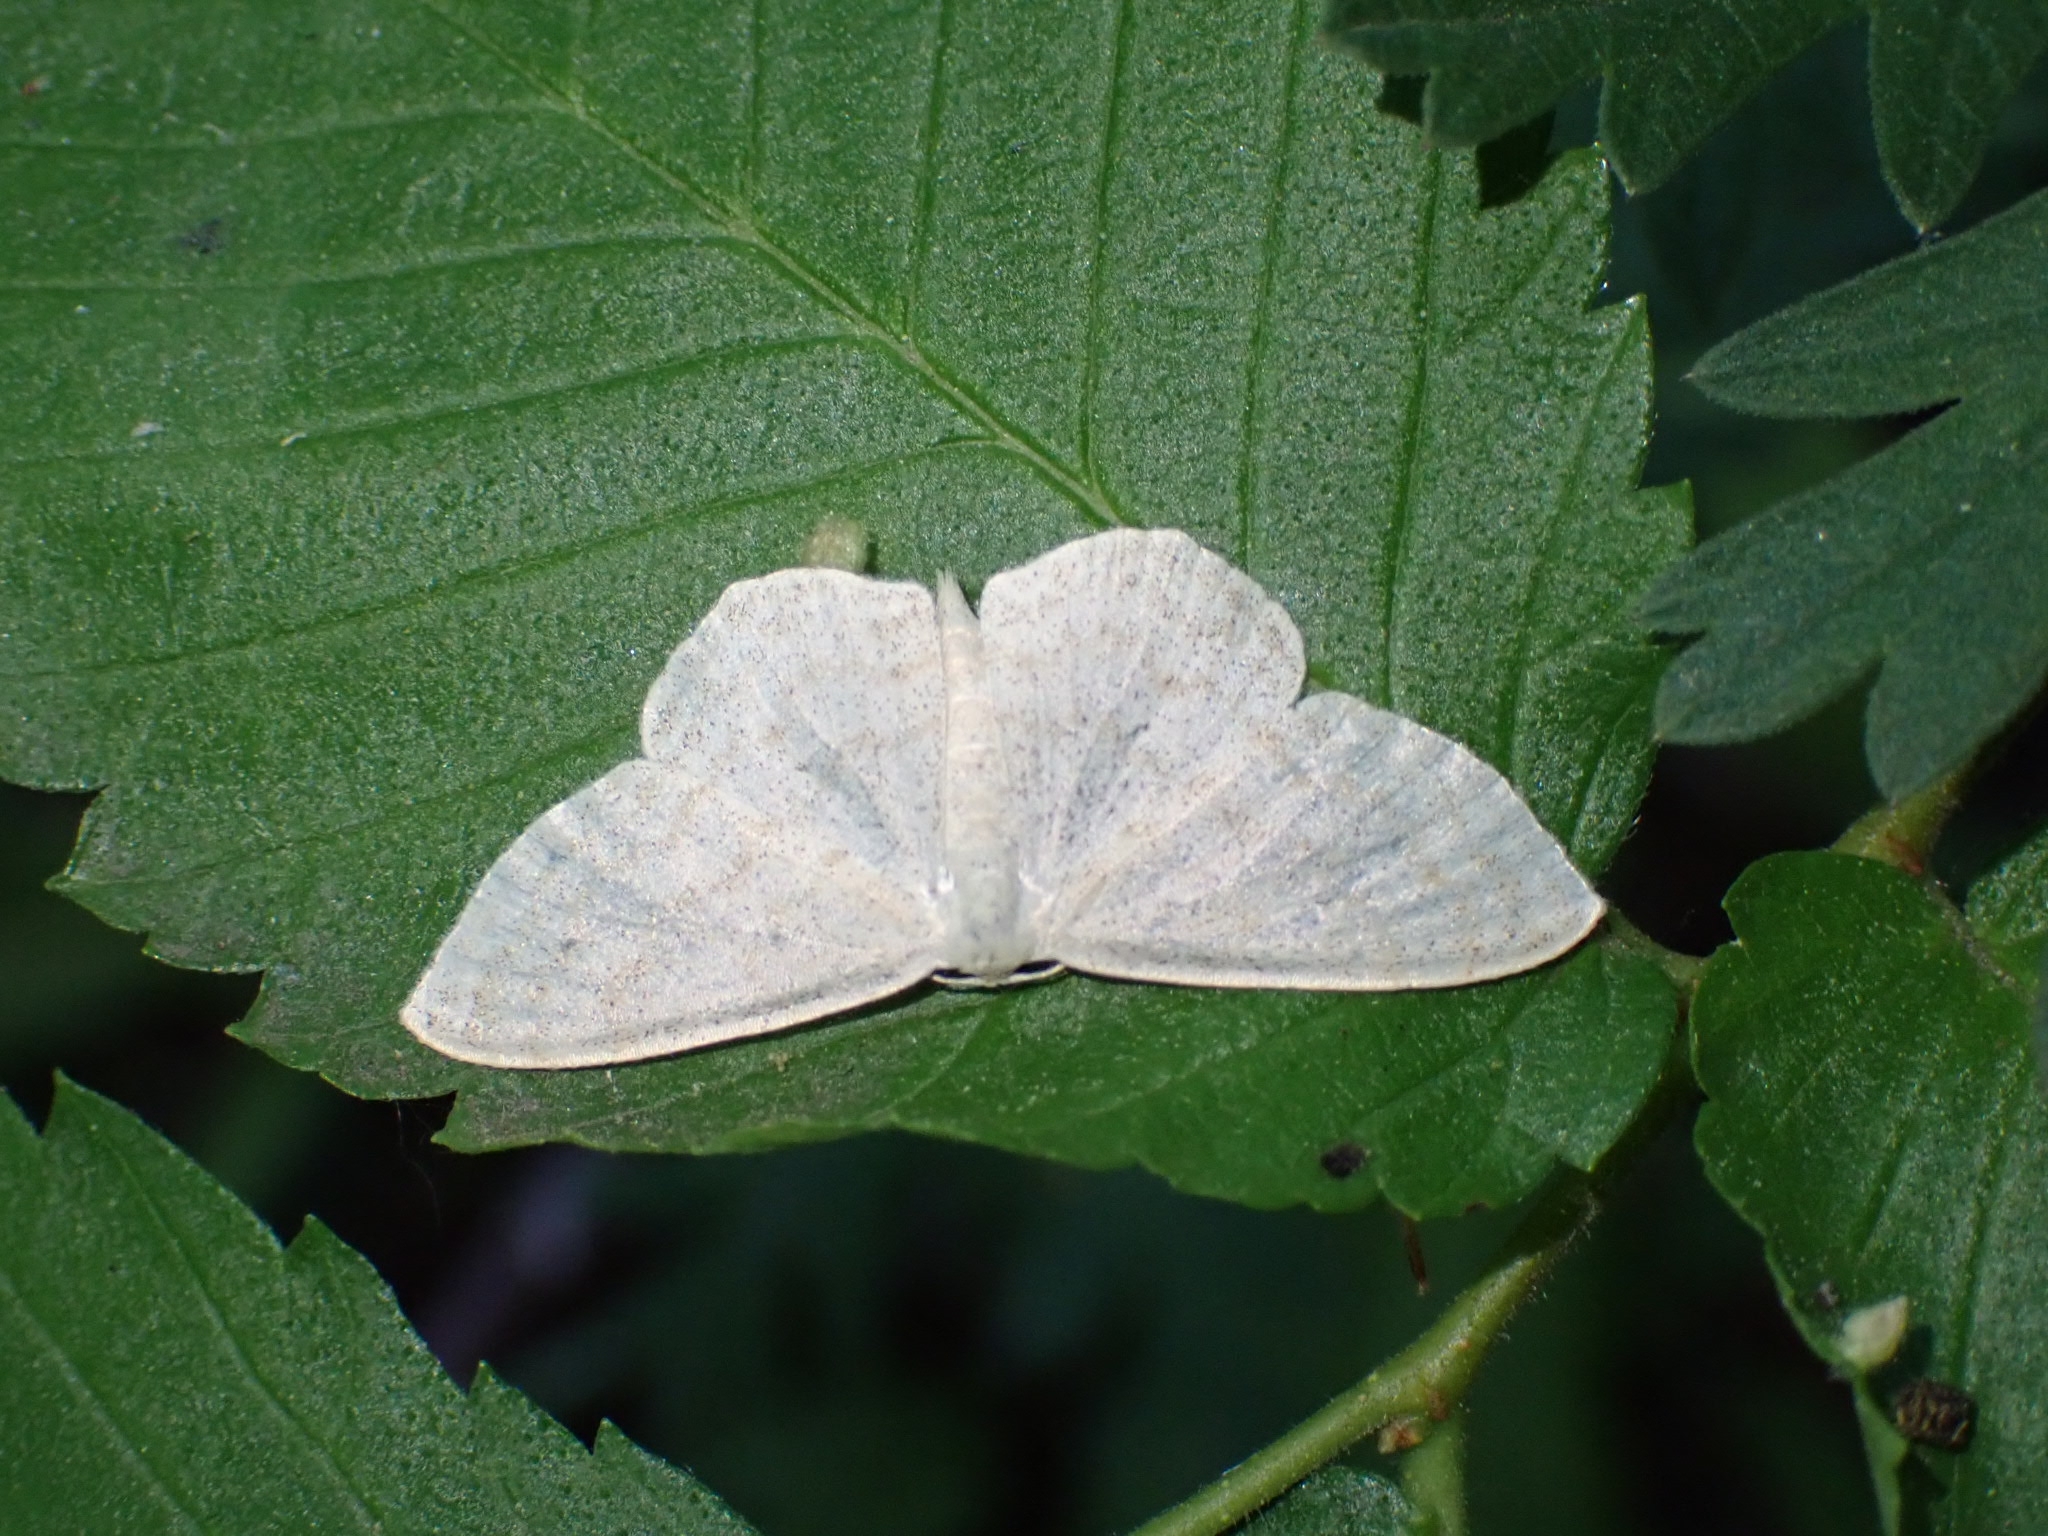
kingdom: Animalia
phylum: Arthropoda
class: Insecta
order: Lepidoptera
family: Geometridae
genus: Scopula
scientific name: Scopula floslactata
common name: Cream wave
